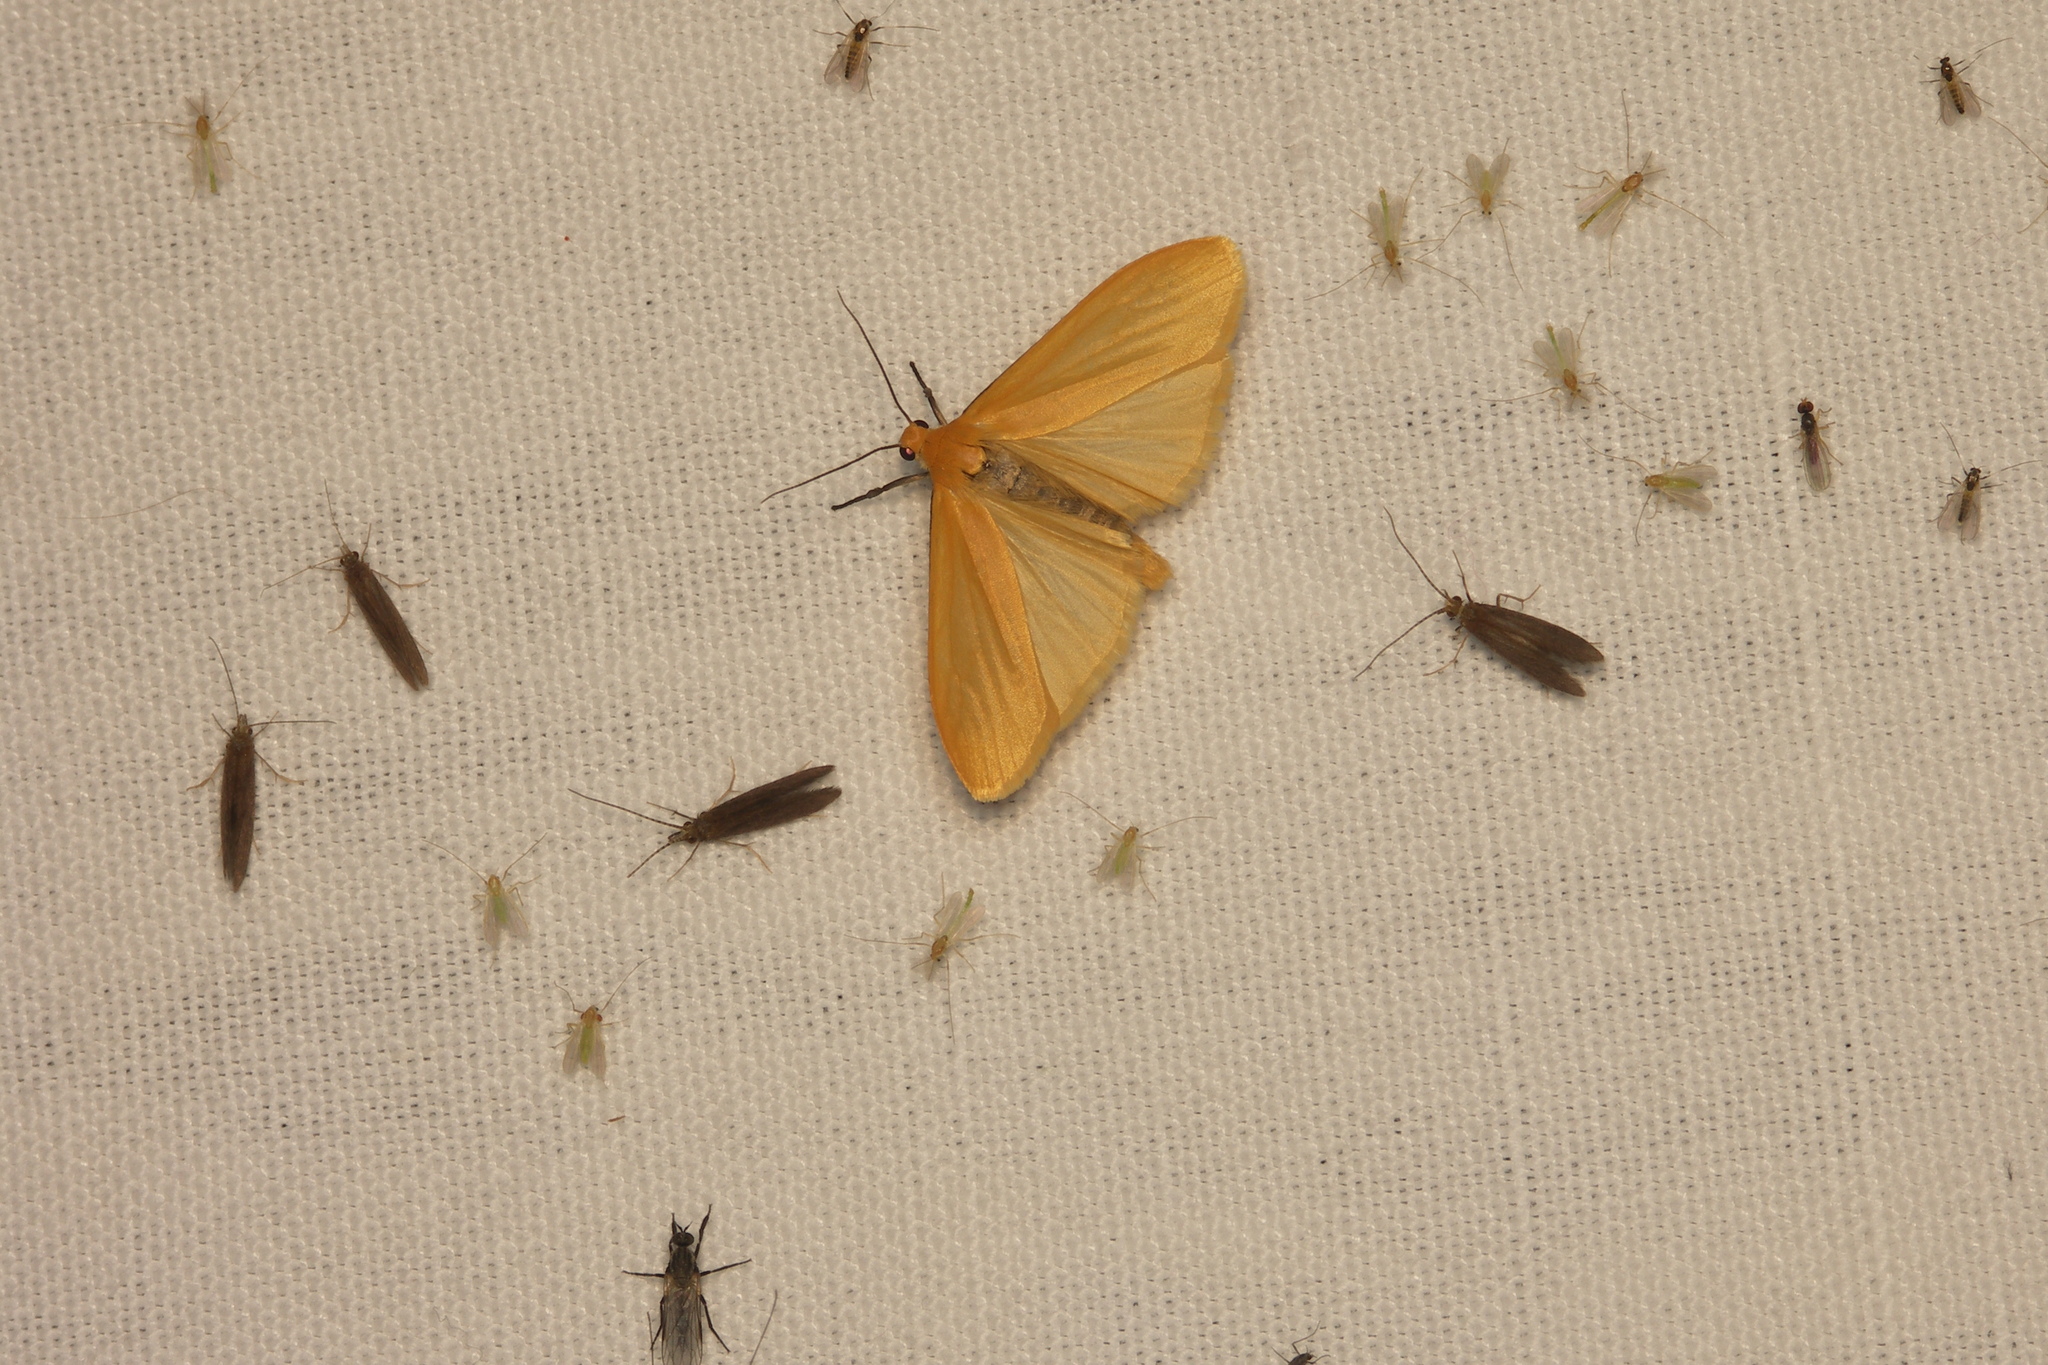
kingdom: Animalia
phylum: Arthropoda
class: Insecta
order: Lepidoptera
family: Erebidae
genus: Wittia
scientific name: Wittia sororcula
